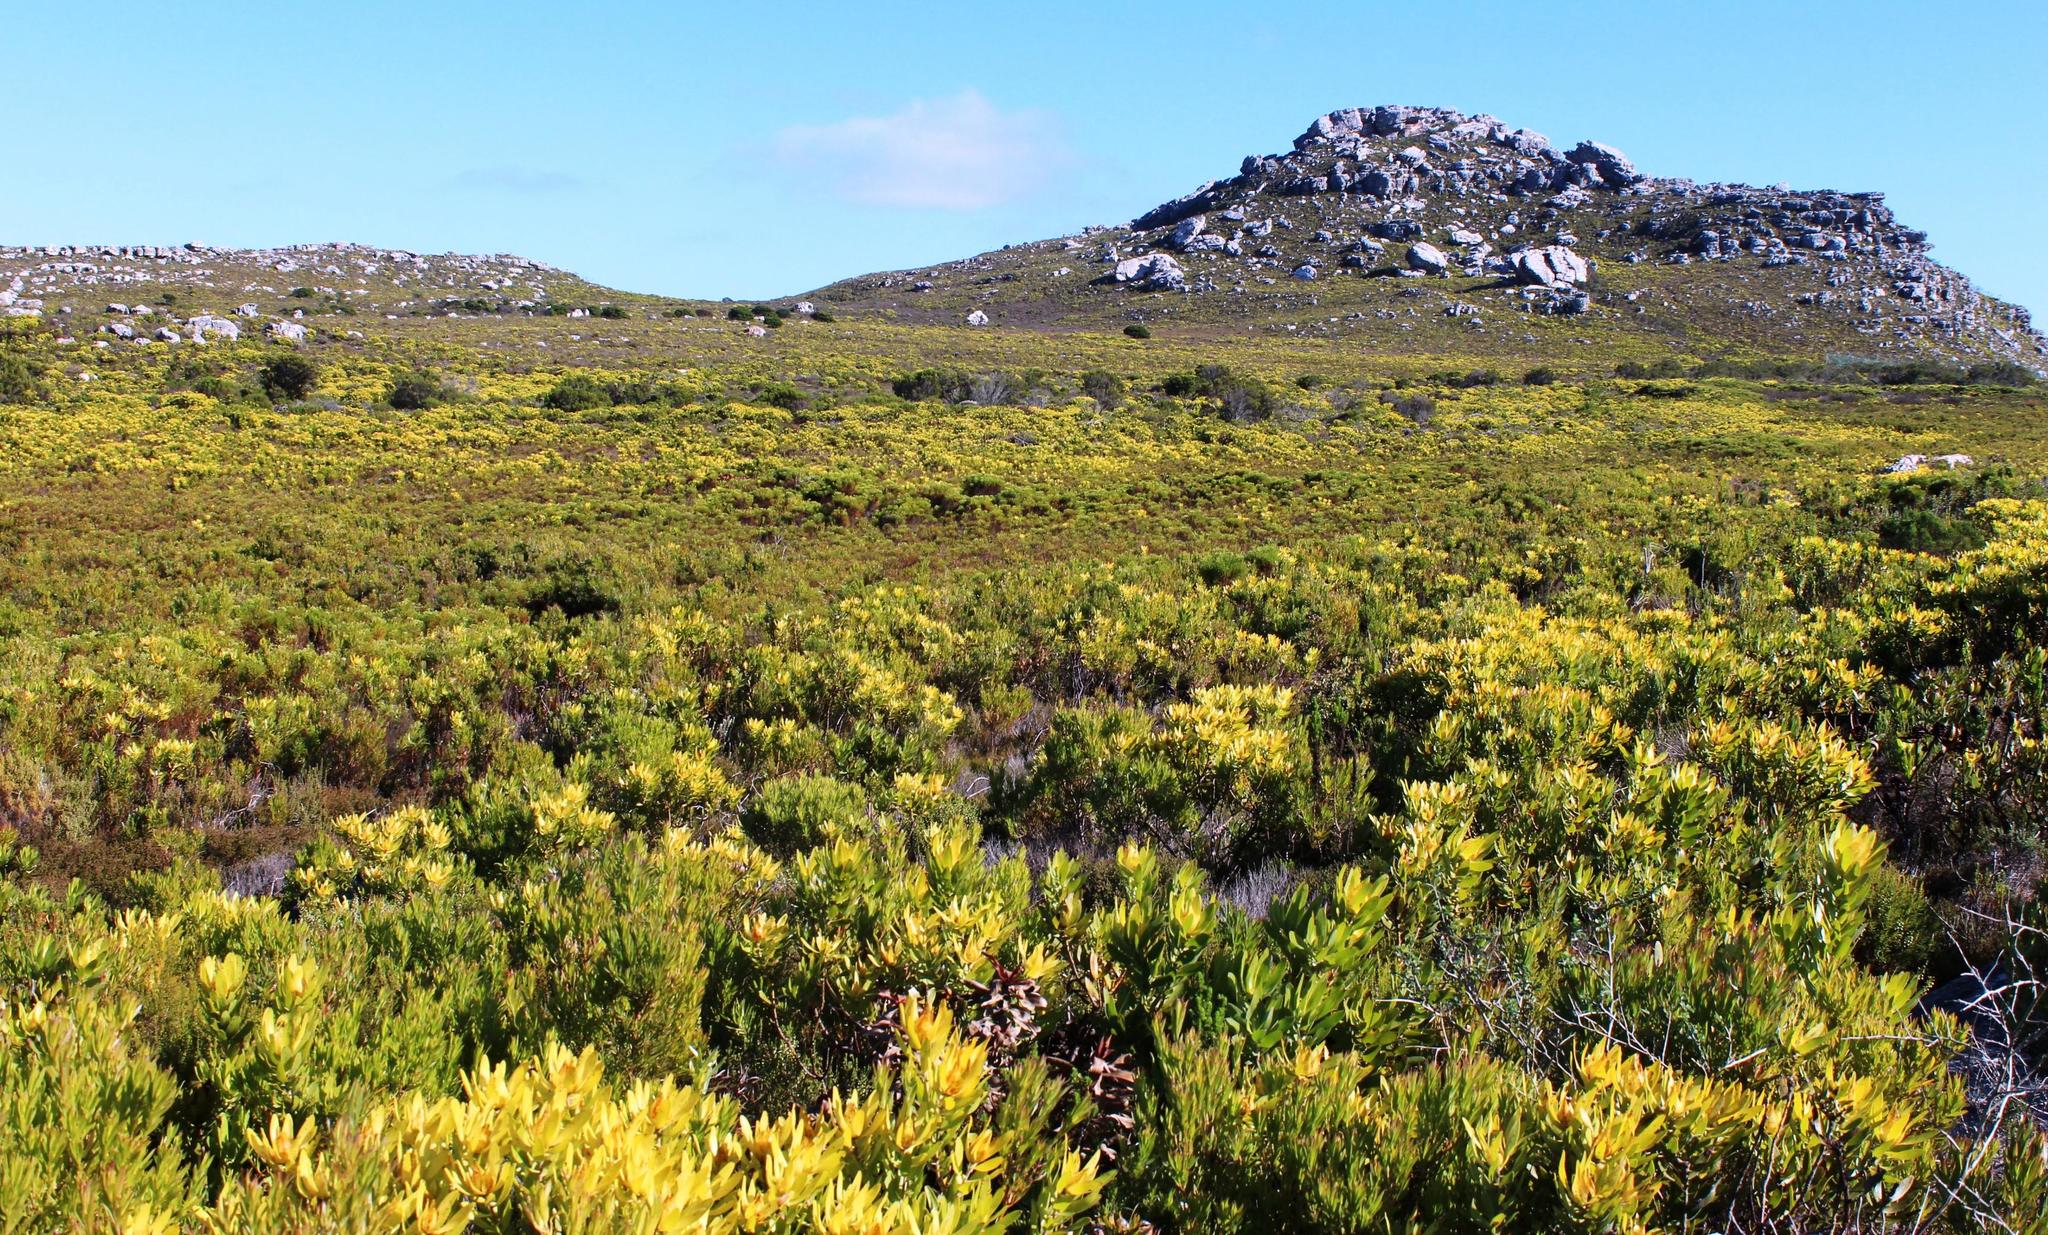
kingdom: Plantae
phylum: Tracheophyta
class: Magnoliopsida
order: Proteales
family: Proteaceae
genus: Leucadendron
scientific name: Leucadendron laureolum
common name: Golden sunshinebush
